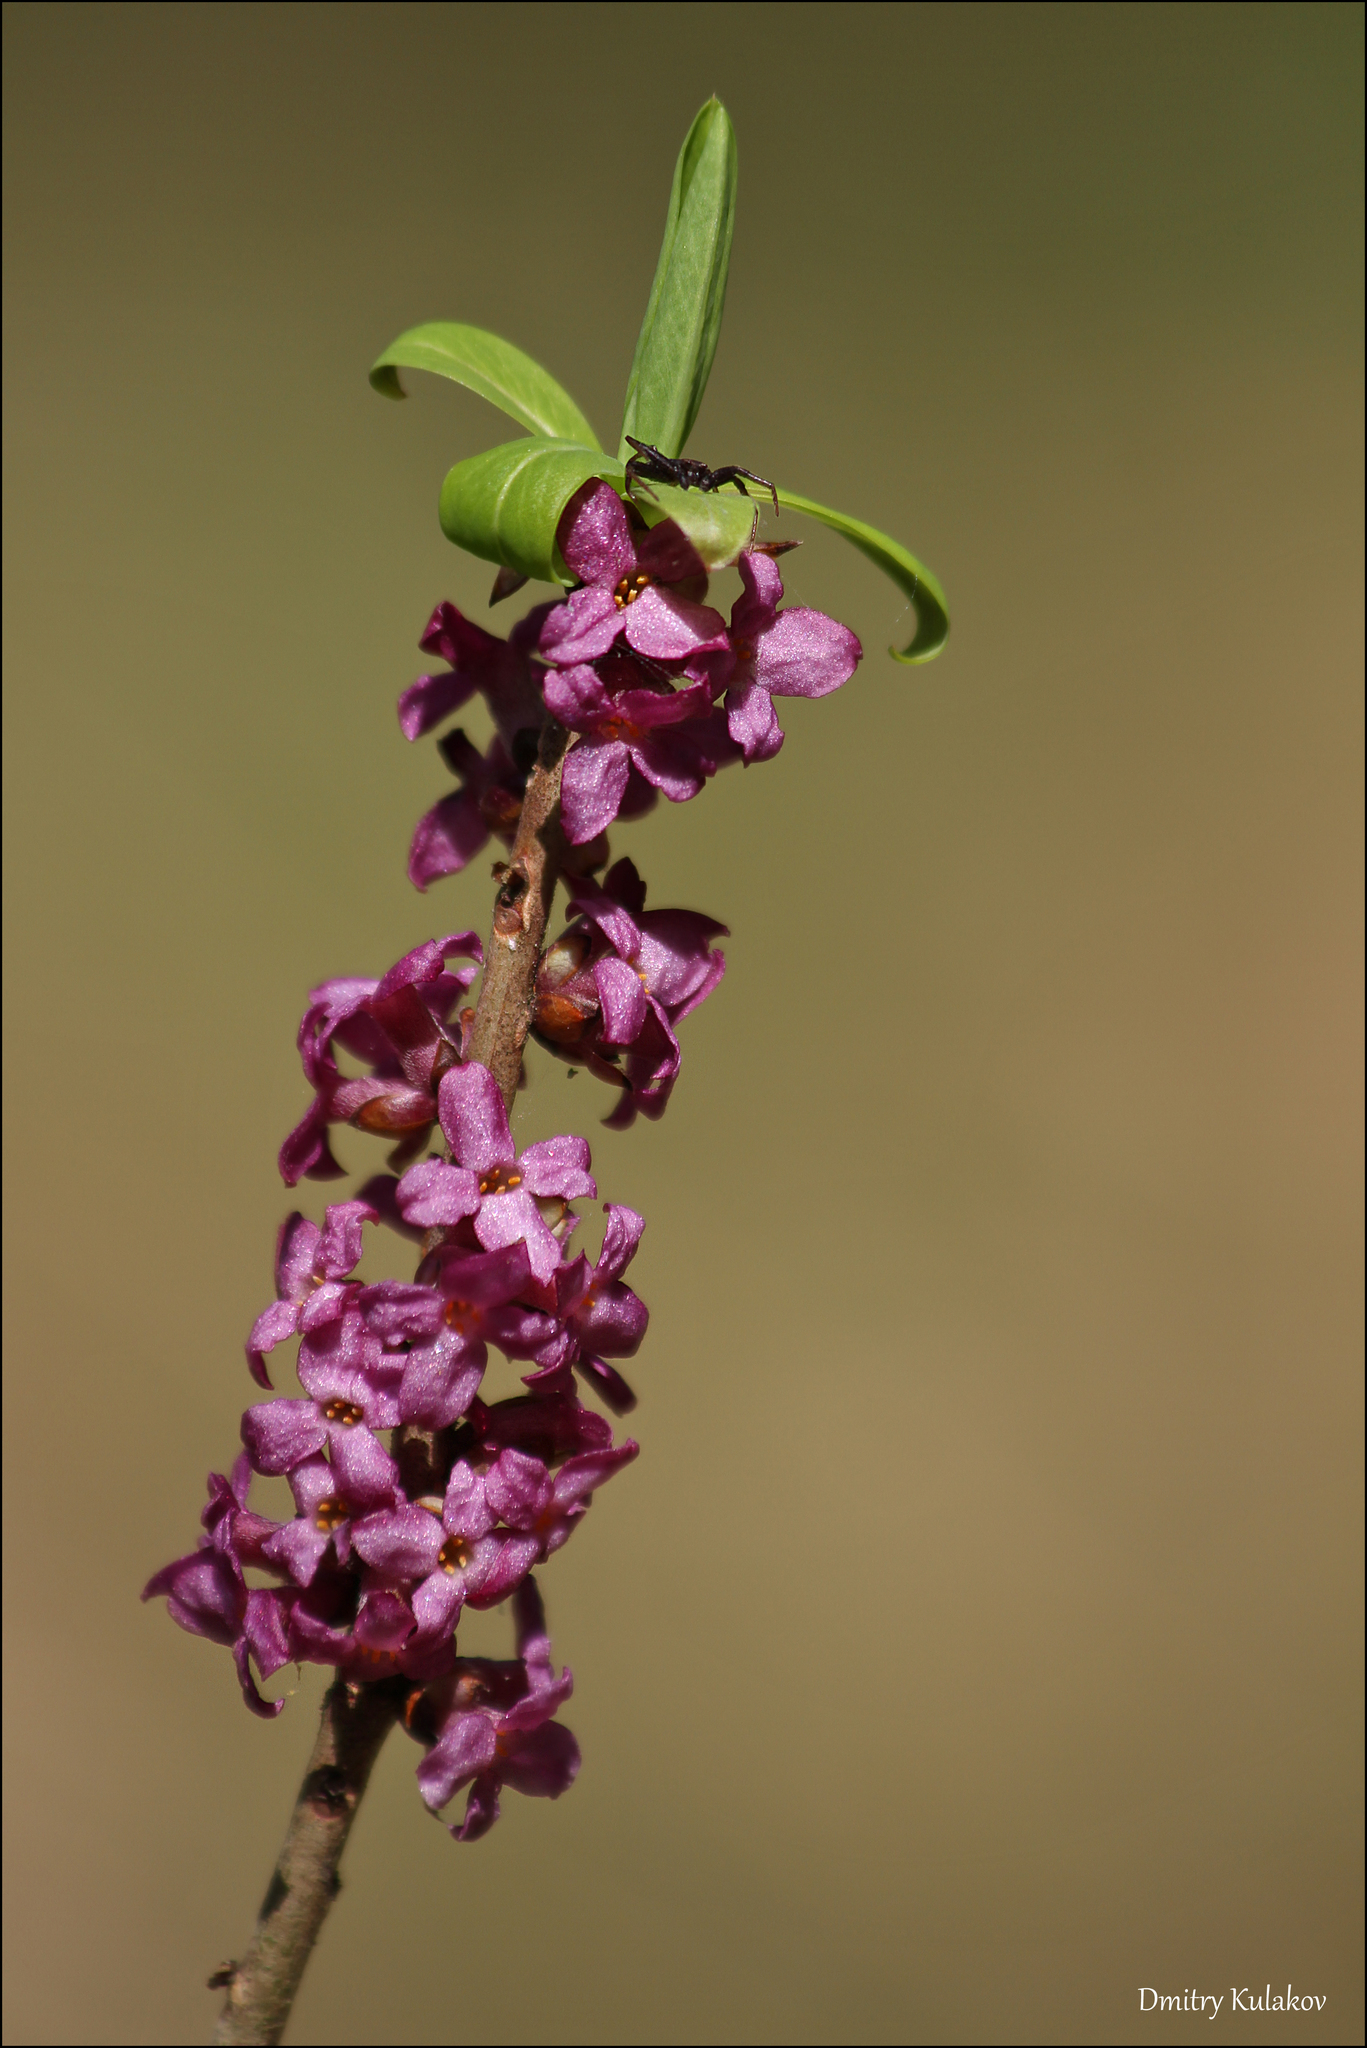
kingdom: Plantae
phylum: Tracheophyta
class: Magnoliopsida
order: Malvales
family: Thymelaeaceae
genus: Daphne
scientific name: Daphne mezereum
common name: Mezereon
